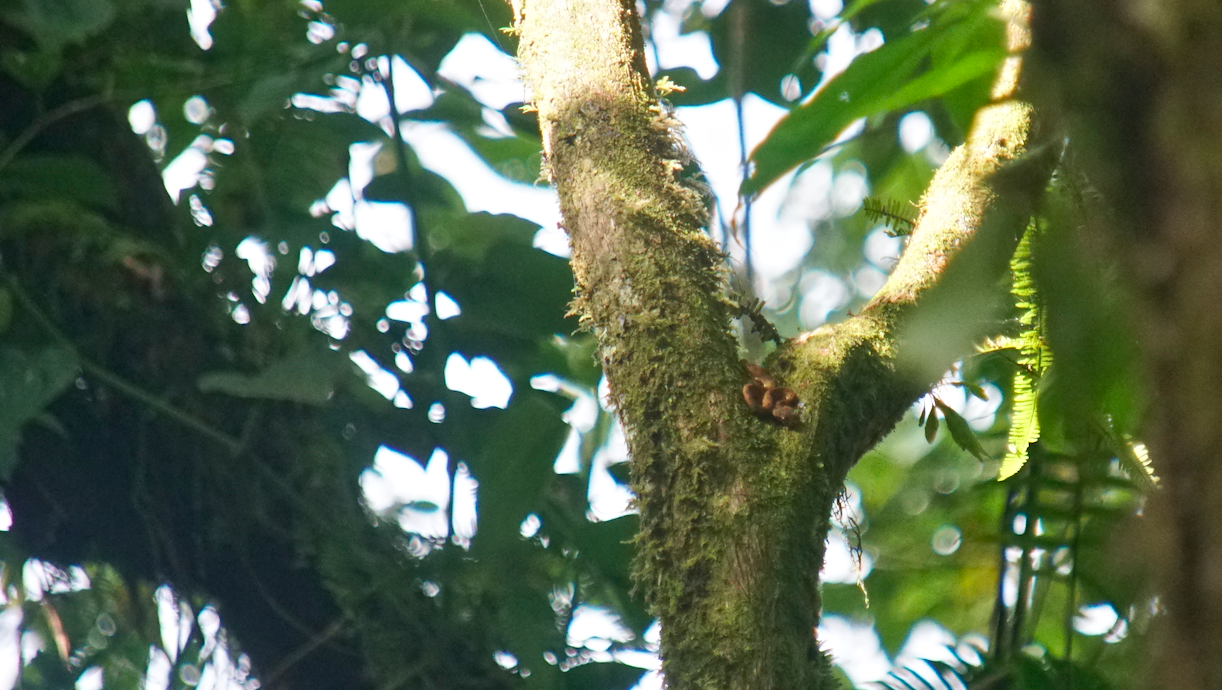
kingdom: Animalia
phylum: Chordata
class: Squamata
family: Viperidae
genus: Bothriechis
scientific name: Bothriechis schlegelii
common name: Eyelash viper
